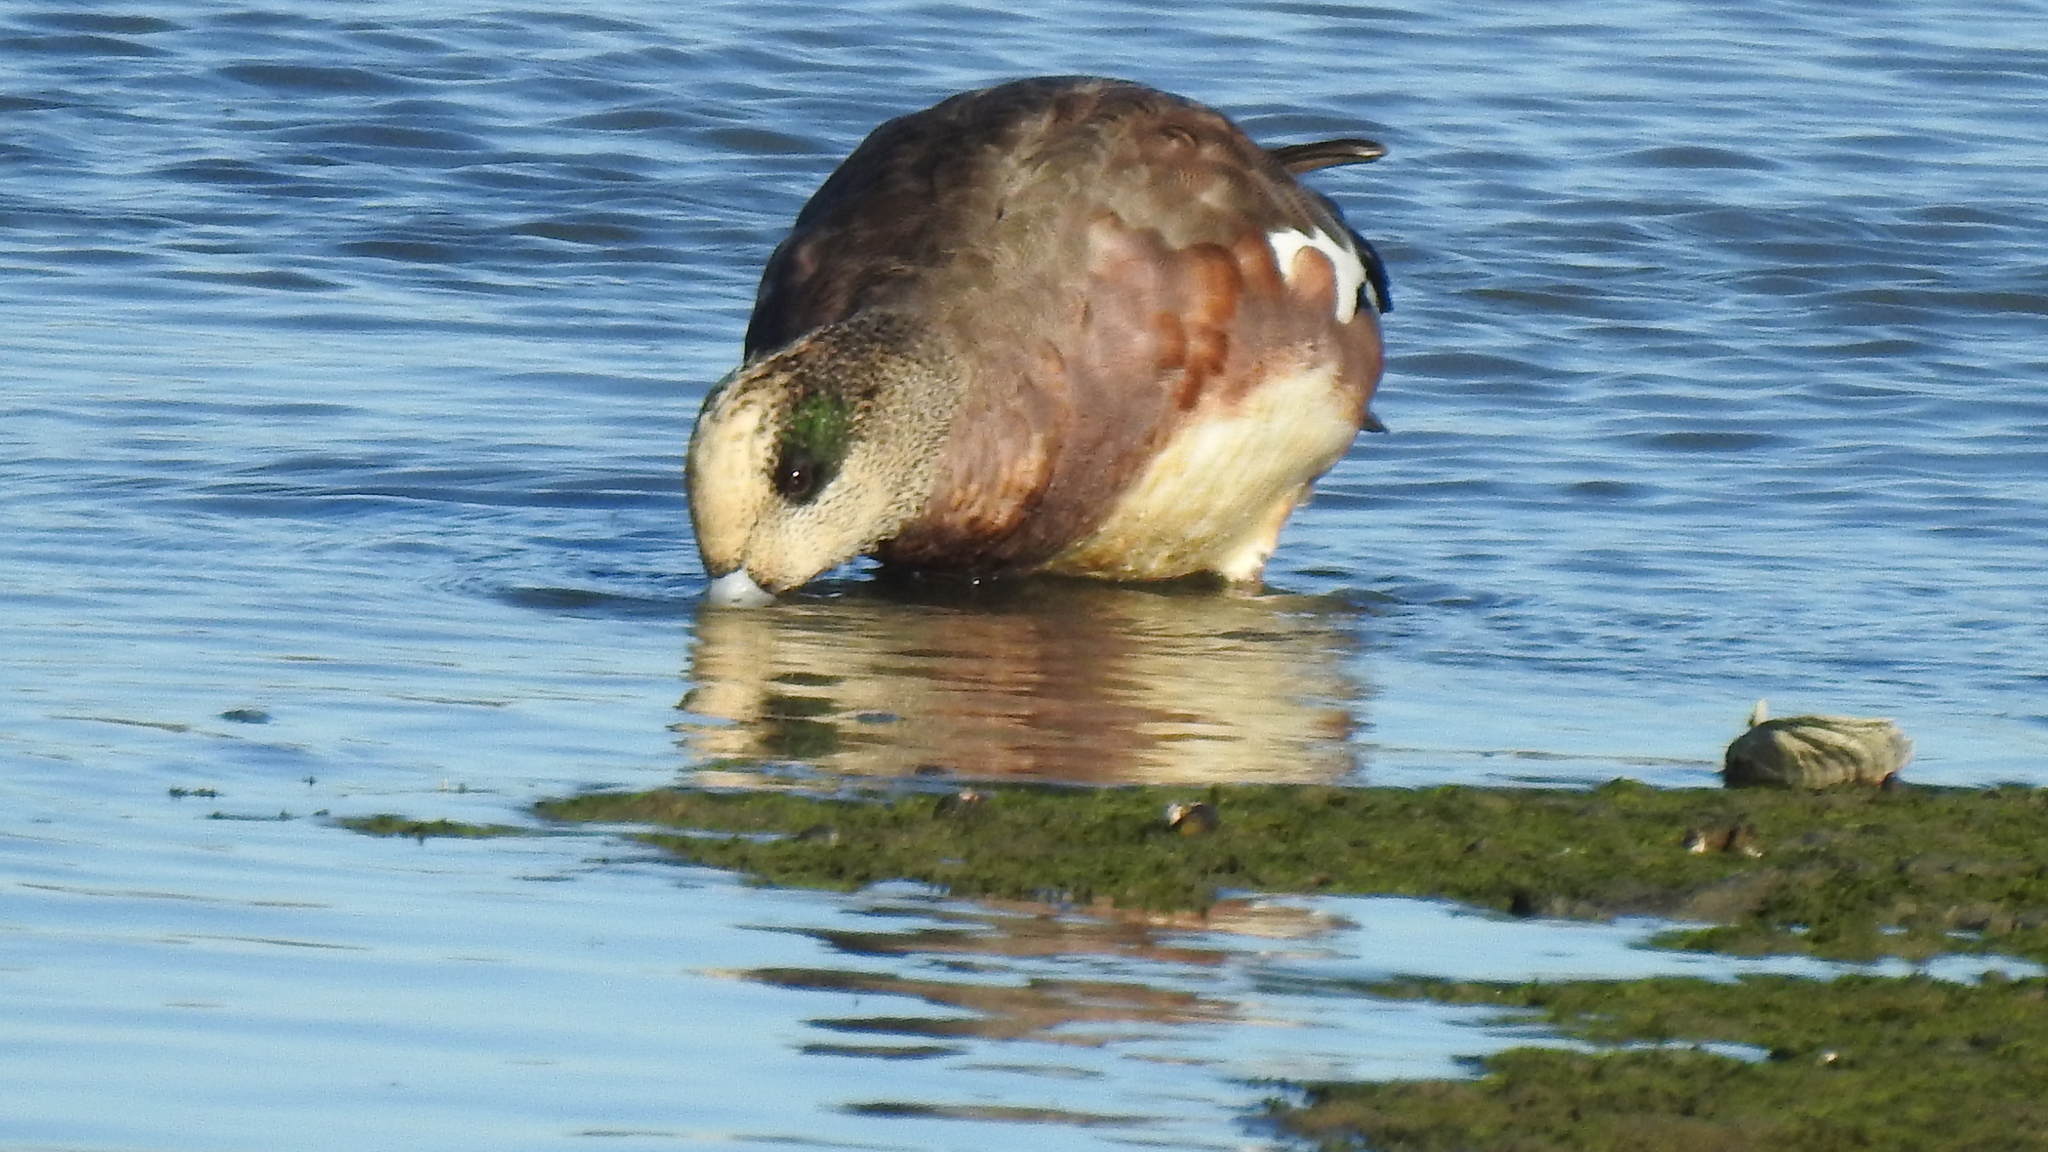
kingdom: Animalia
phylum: Chordata
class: Aves
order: Anseriformes
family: Anatidae
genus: Mareca
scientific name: Mareca americana
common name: American wigeon
